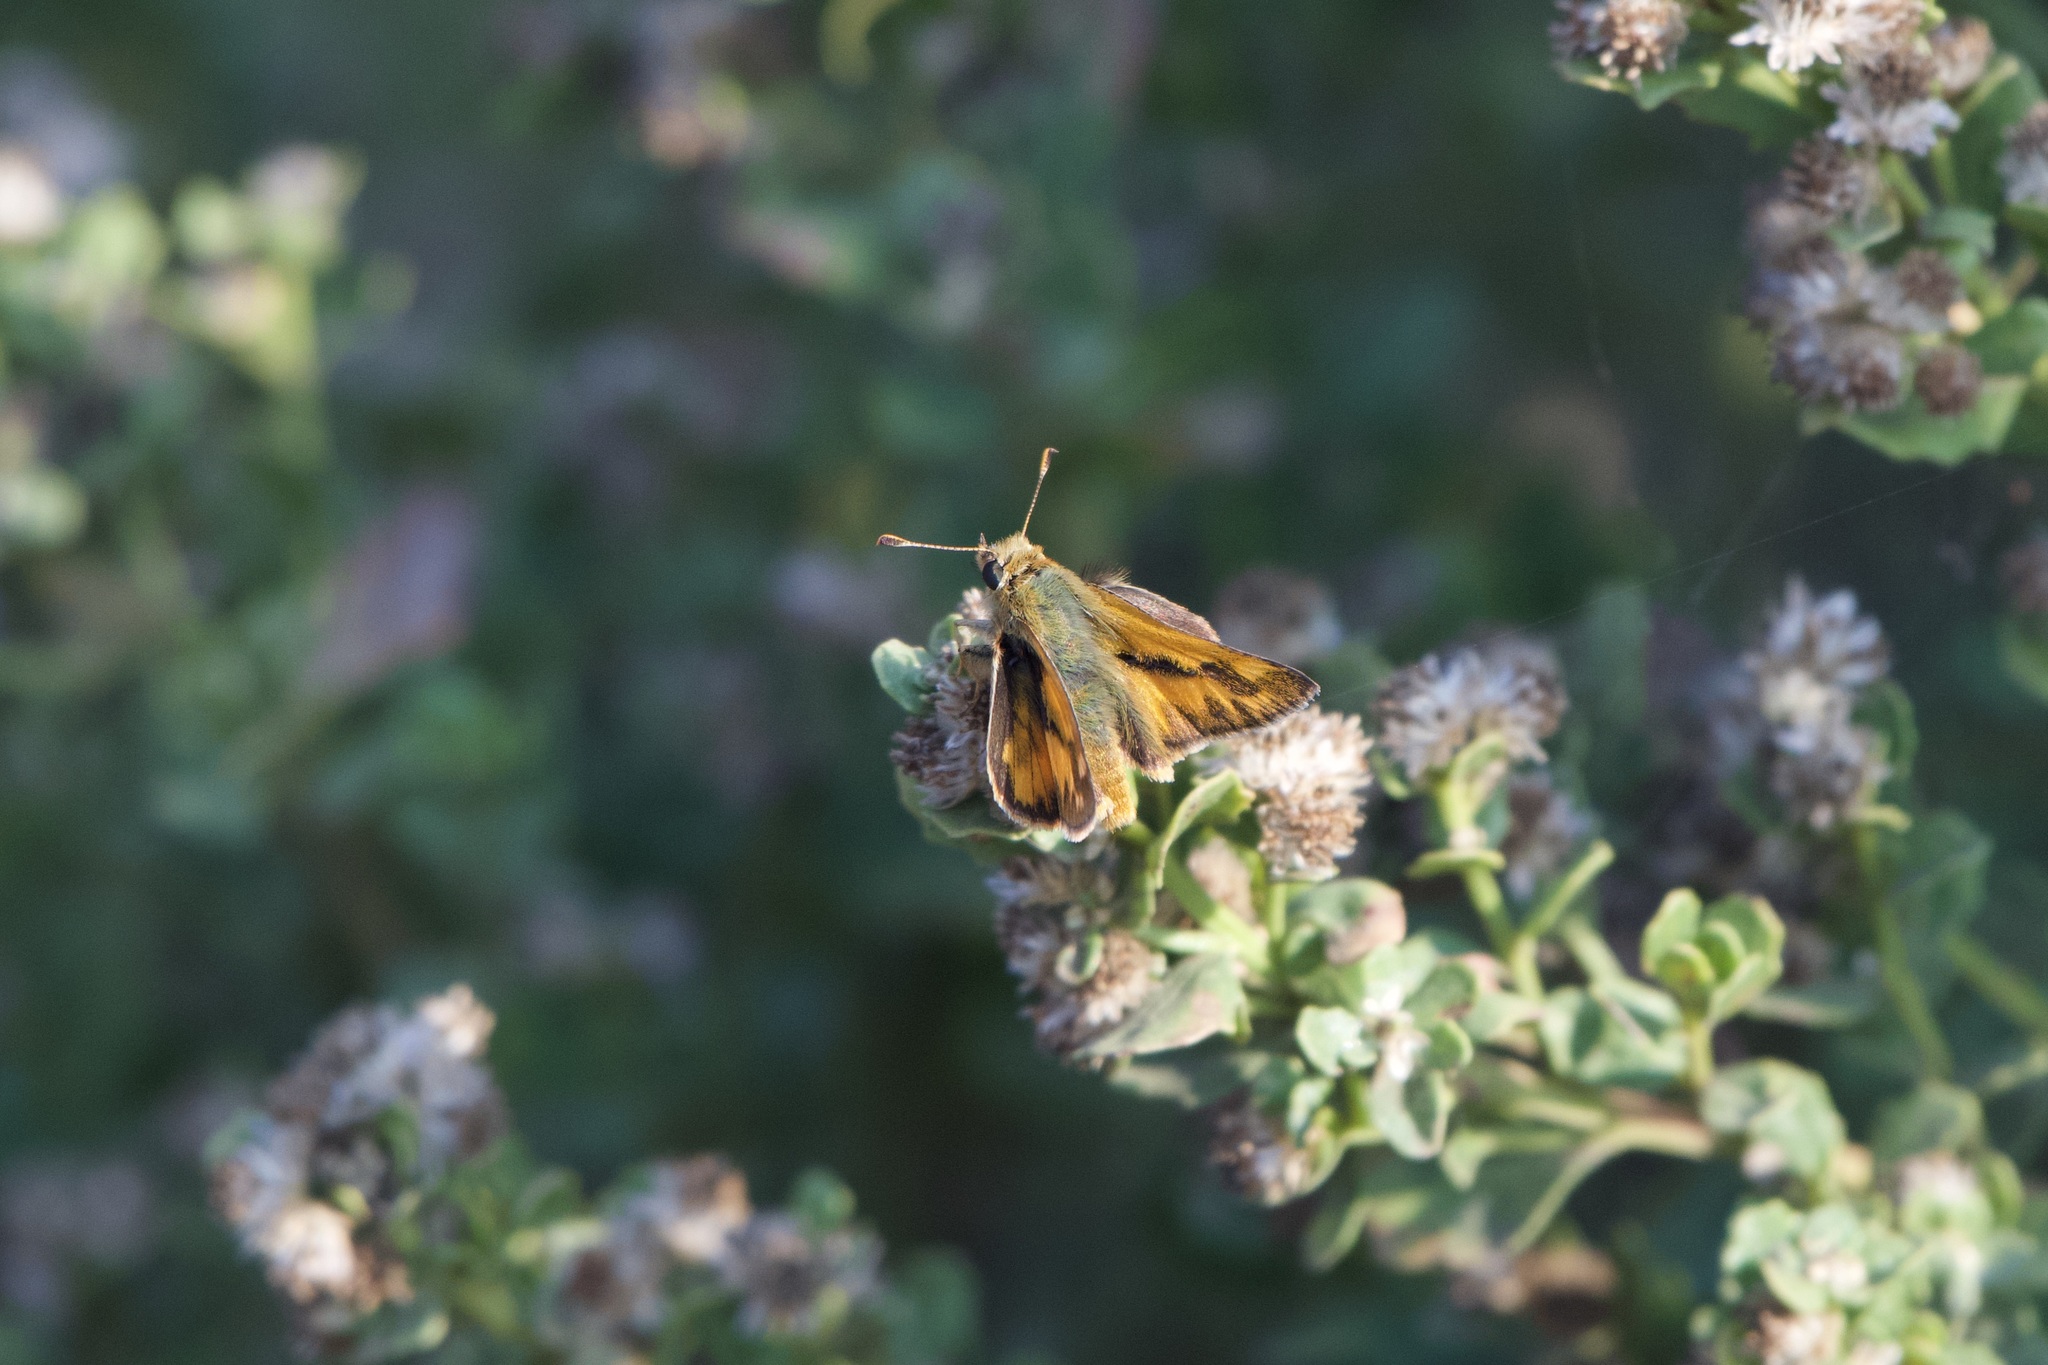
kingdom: Animalia
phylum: Arthropoda
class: Insecta
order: Lepidoptera
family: Hesperiidae
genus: Ochlodes
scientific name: Ochlodes sylvanoides
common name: Woodland skipper
